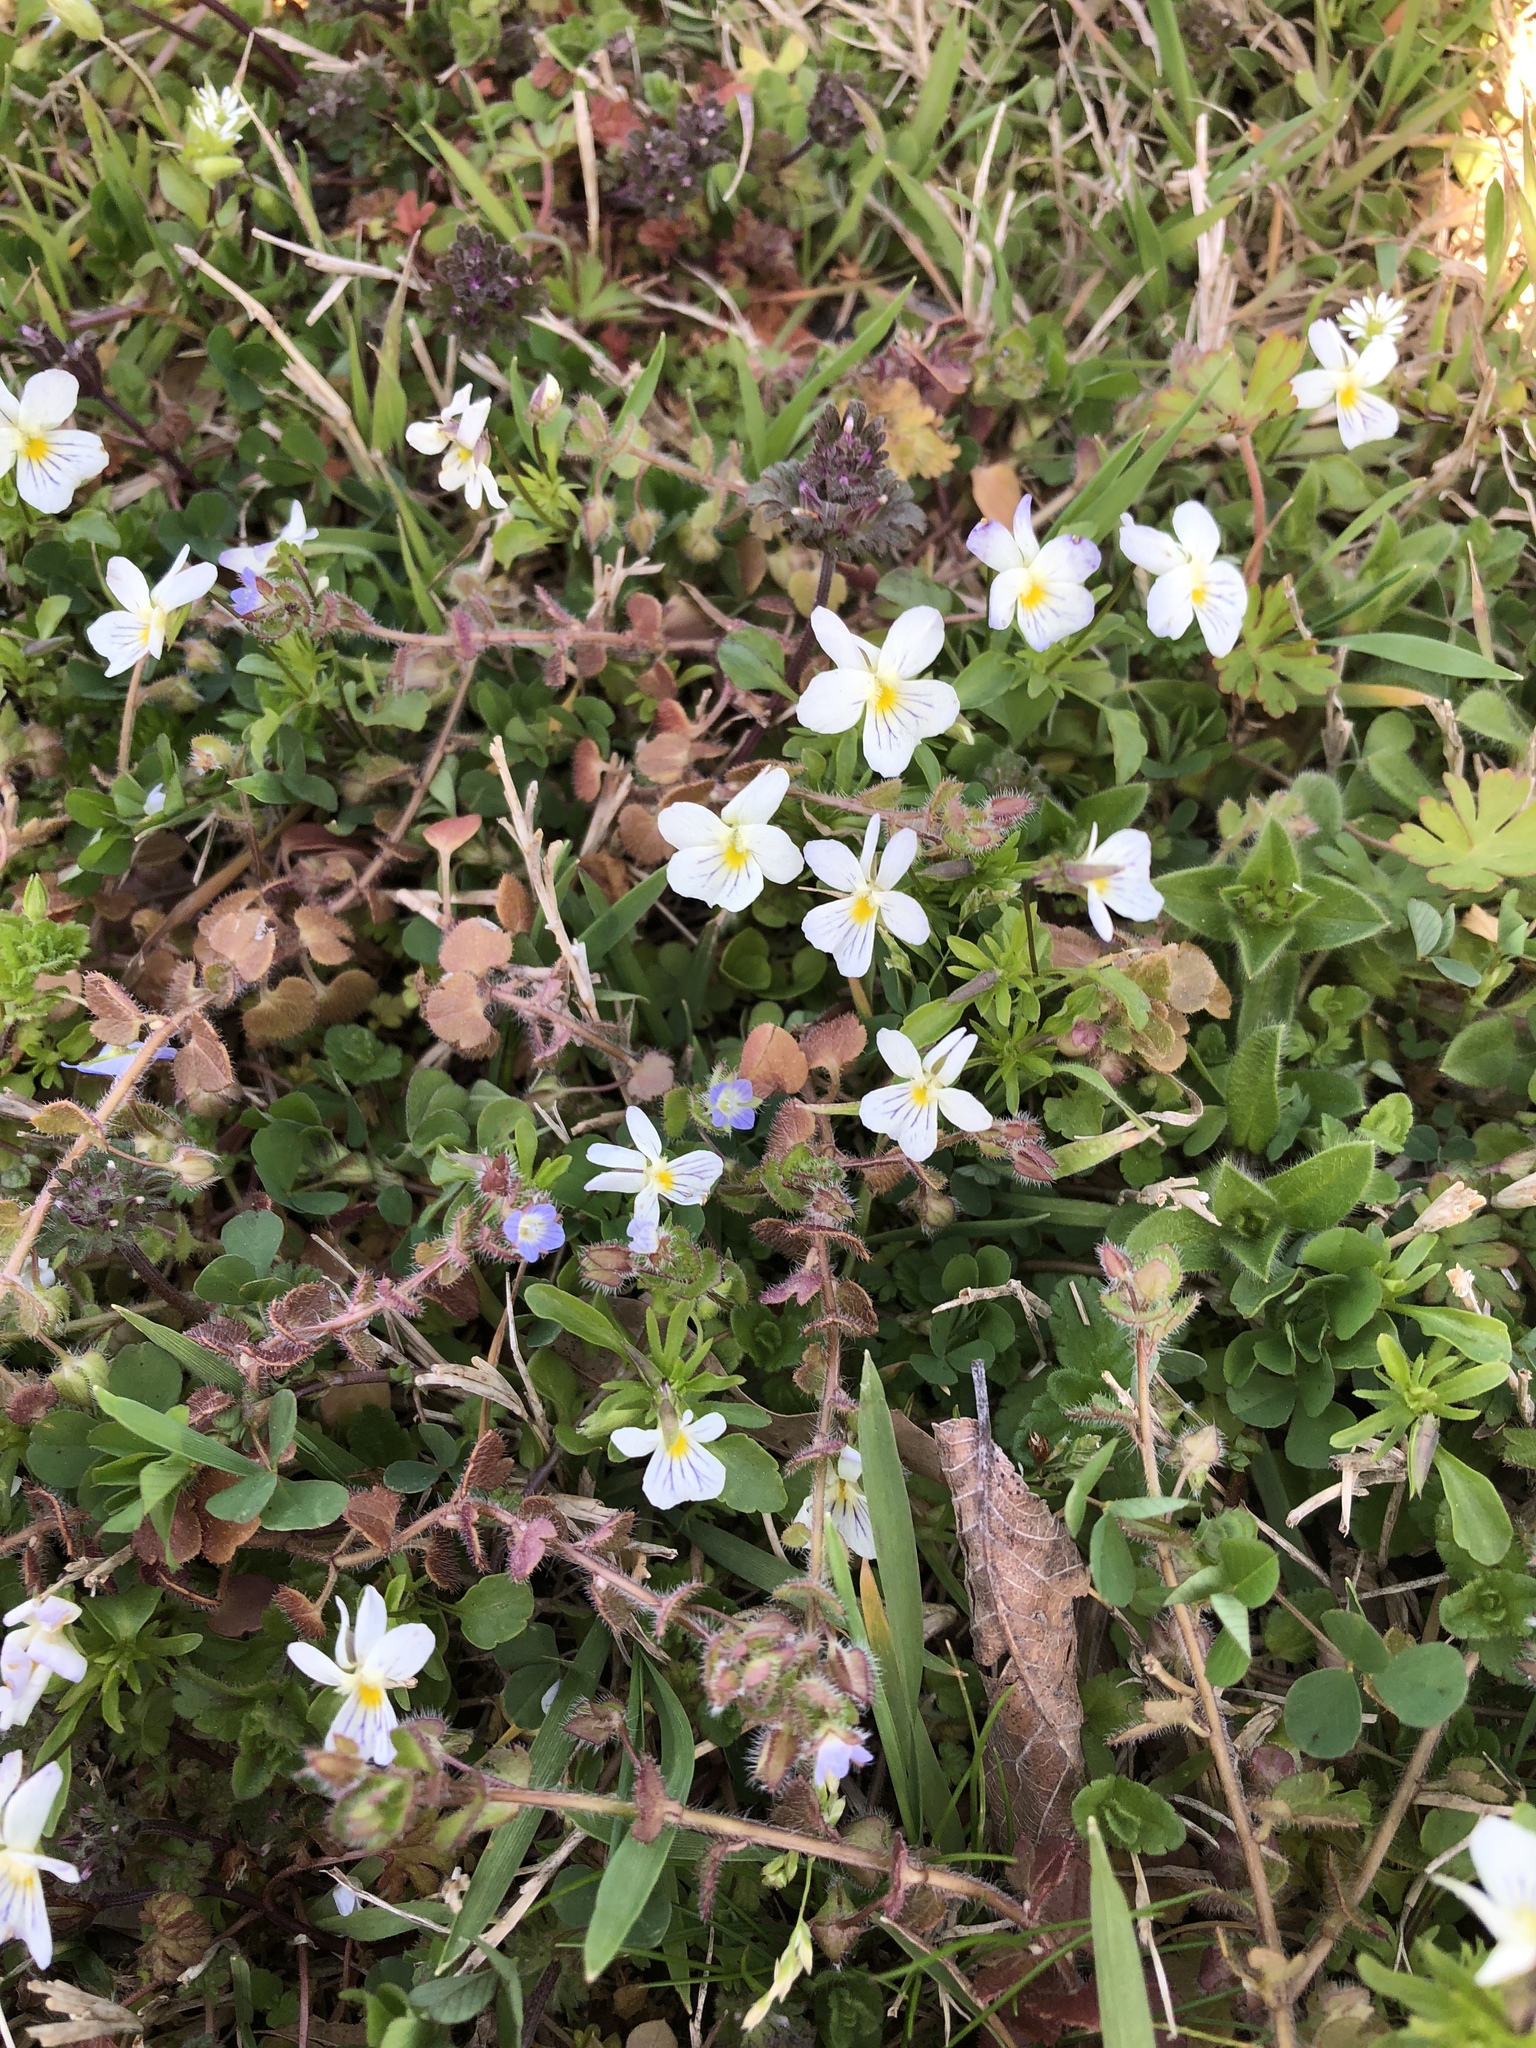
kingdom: Plantae
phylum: Tracheophyta
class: Magnoliopsida
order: Malpighiales
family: Violaceae
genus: Viola
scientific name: Viola rafinesquei
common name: American field pansy
